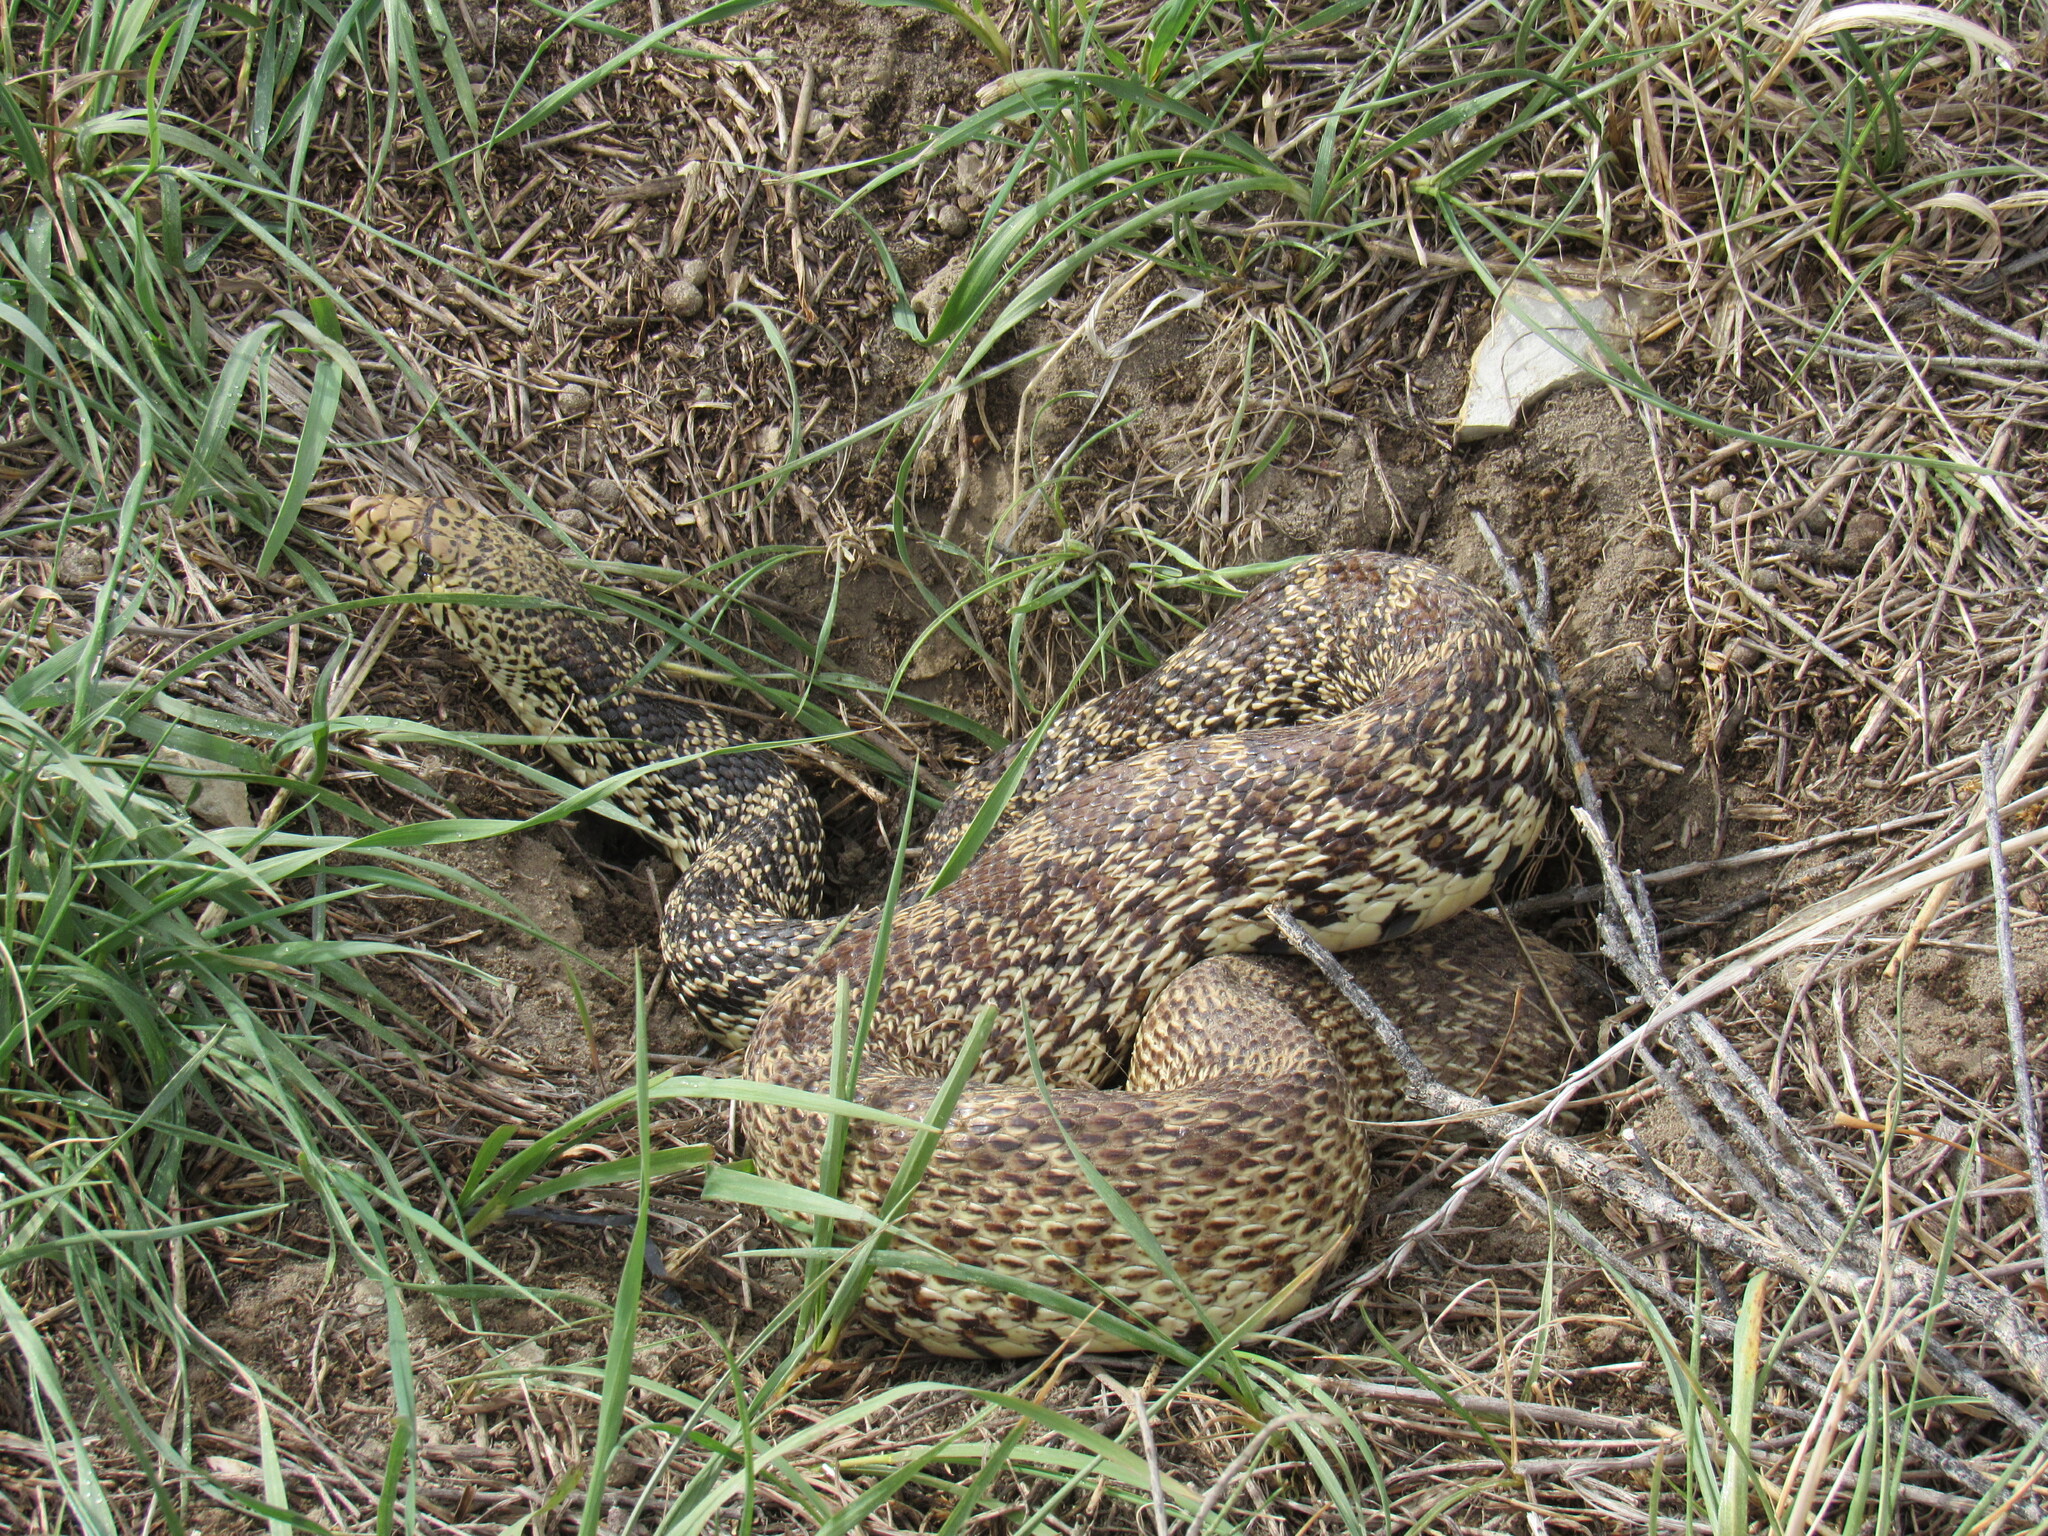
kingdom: Animalia
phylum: Chordata
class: Squamata
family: Colubridae
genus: Pituophis
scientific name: Pituophis catenifer
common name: Gopher snake
